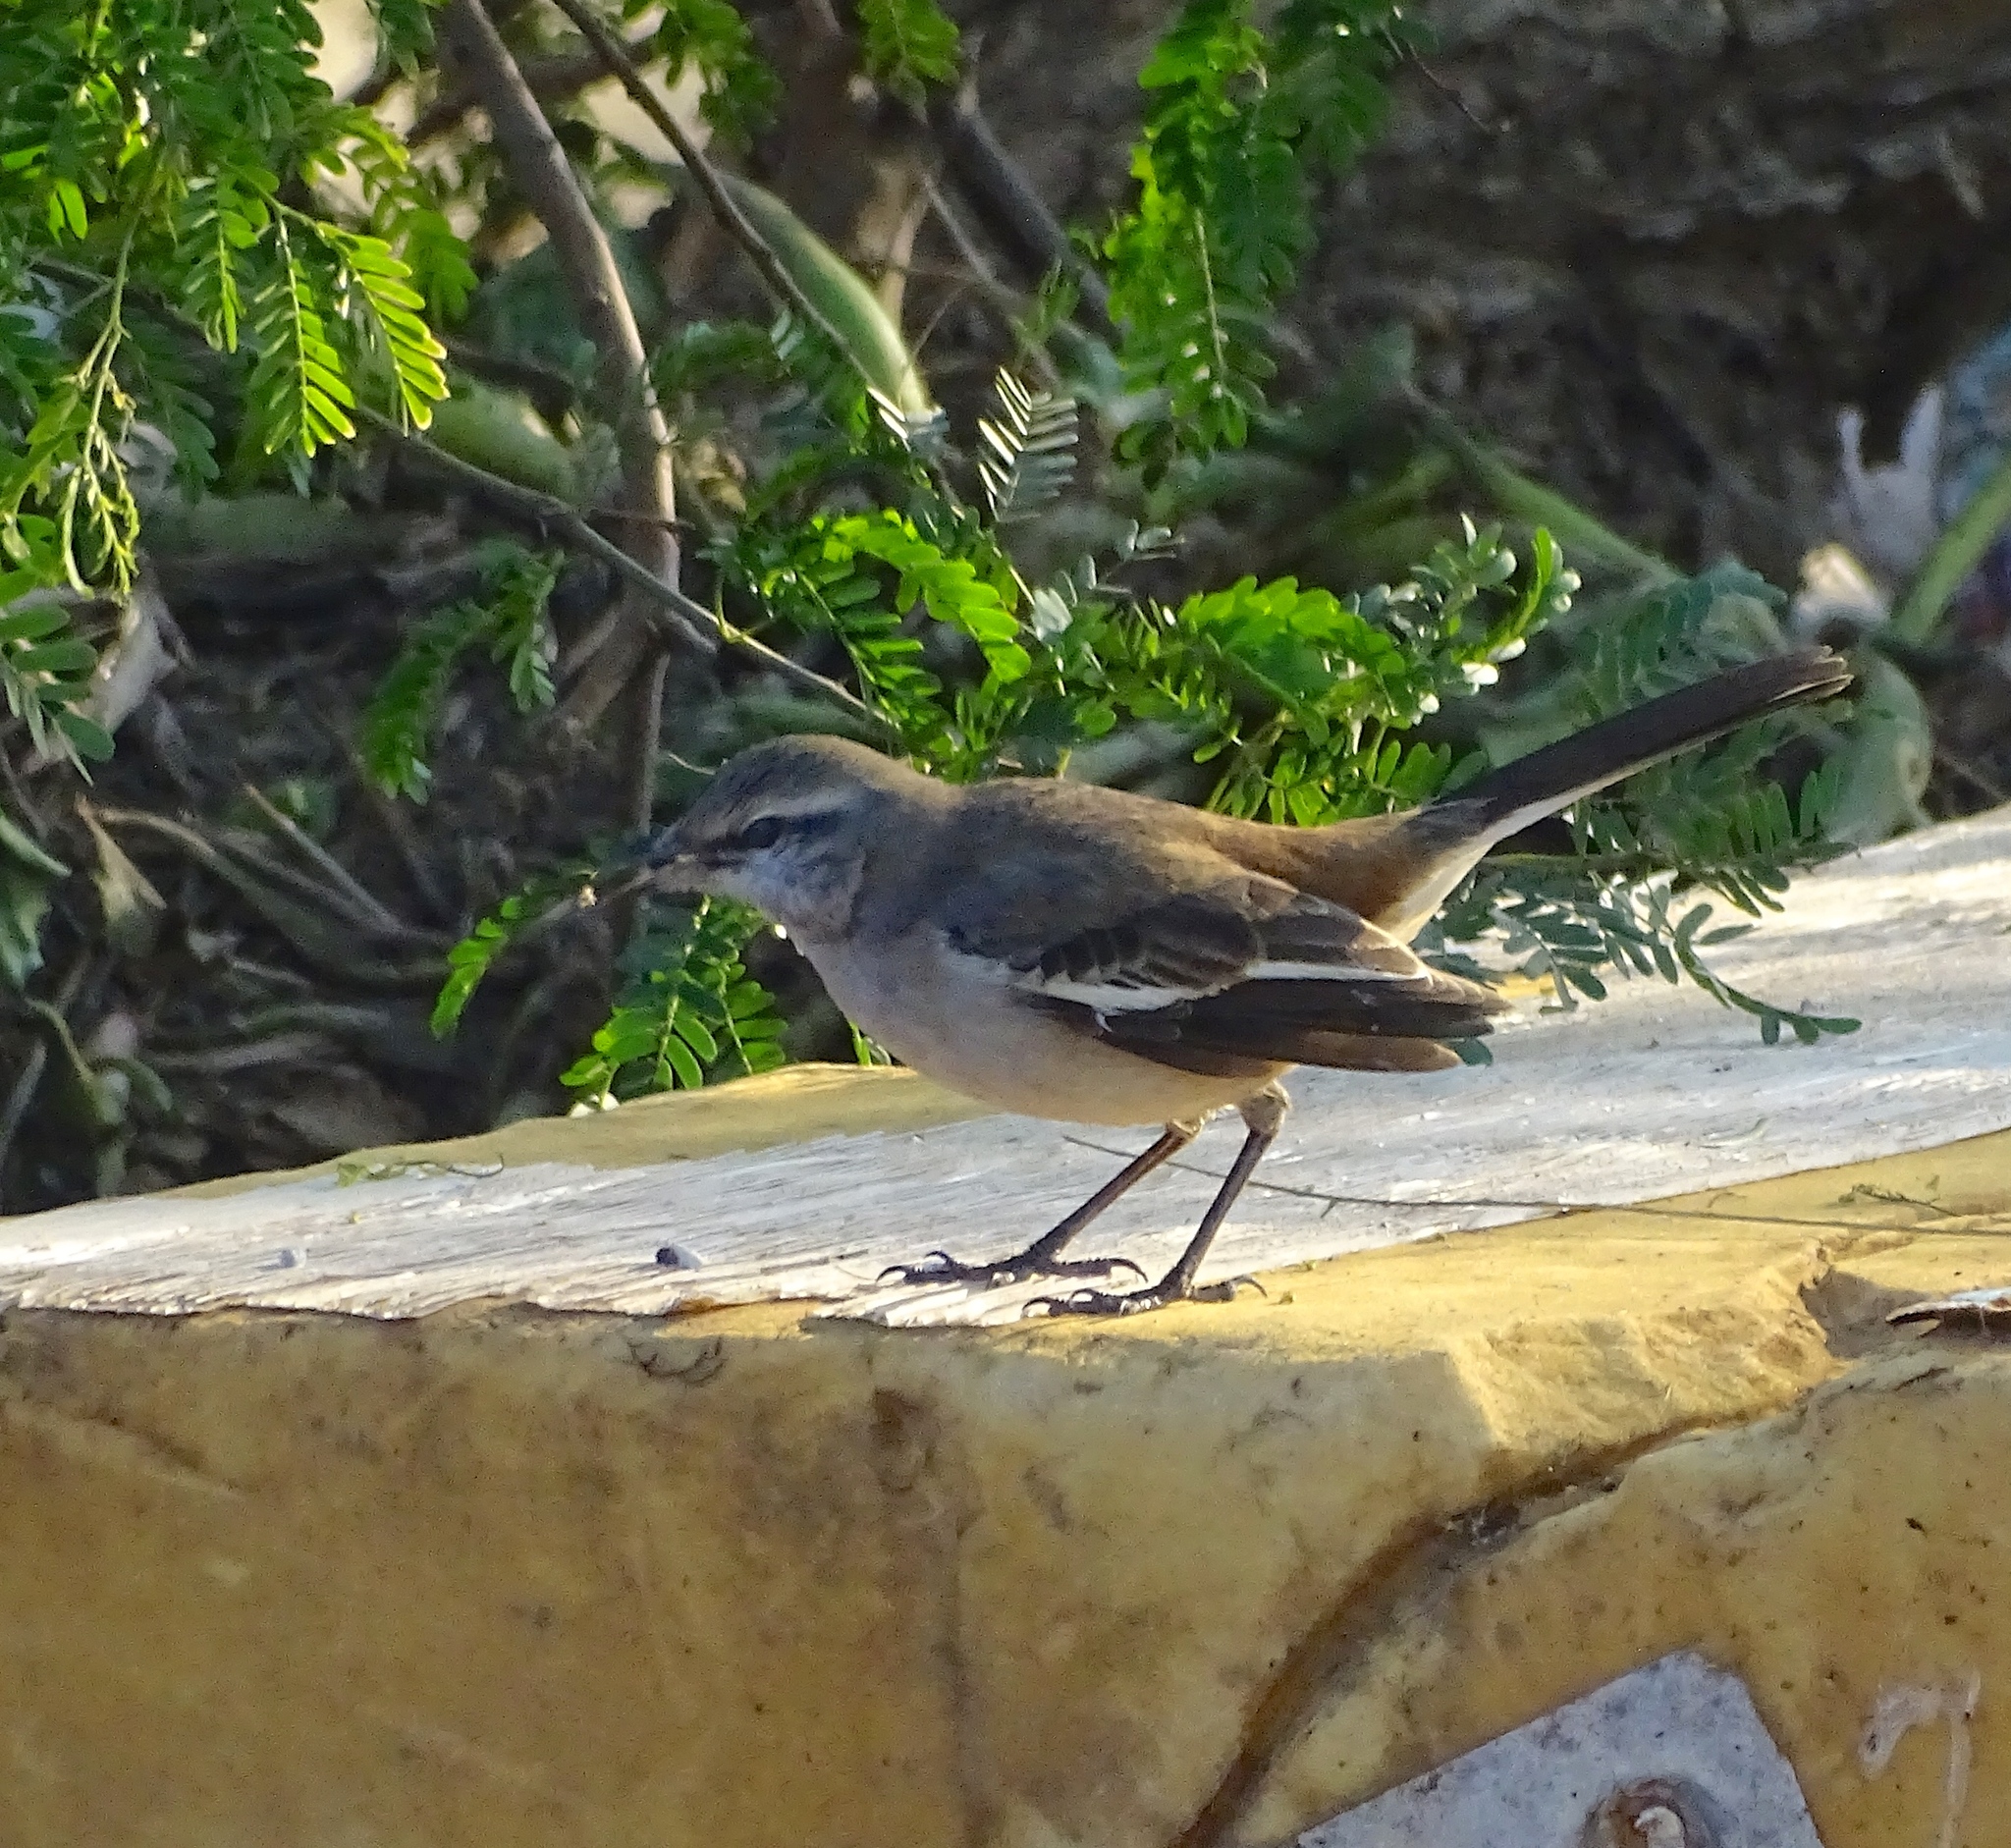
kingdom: Animalia
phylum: Chordata
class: Aves
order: Passeriformes
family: Mimidae
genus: Mimus
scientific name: Mimus triurus
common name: White-banded mockingbird
